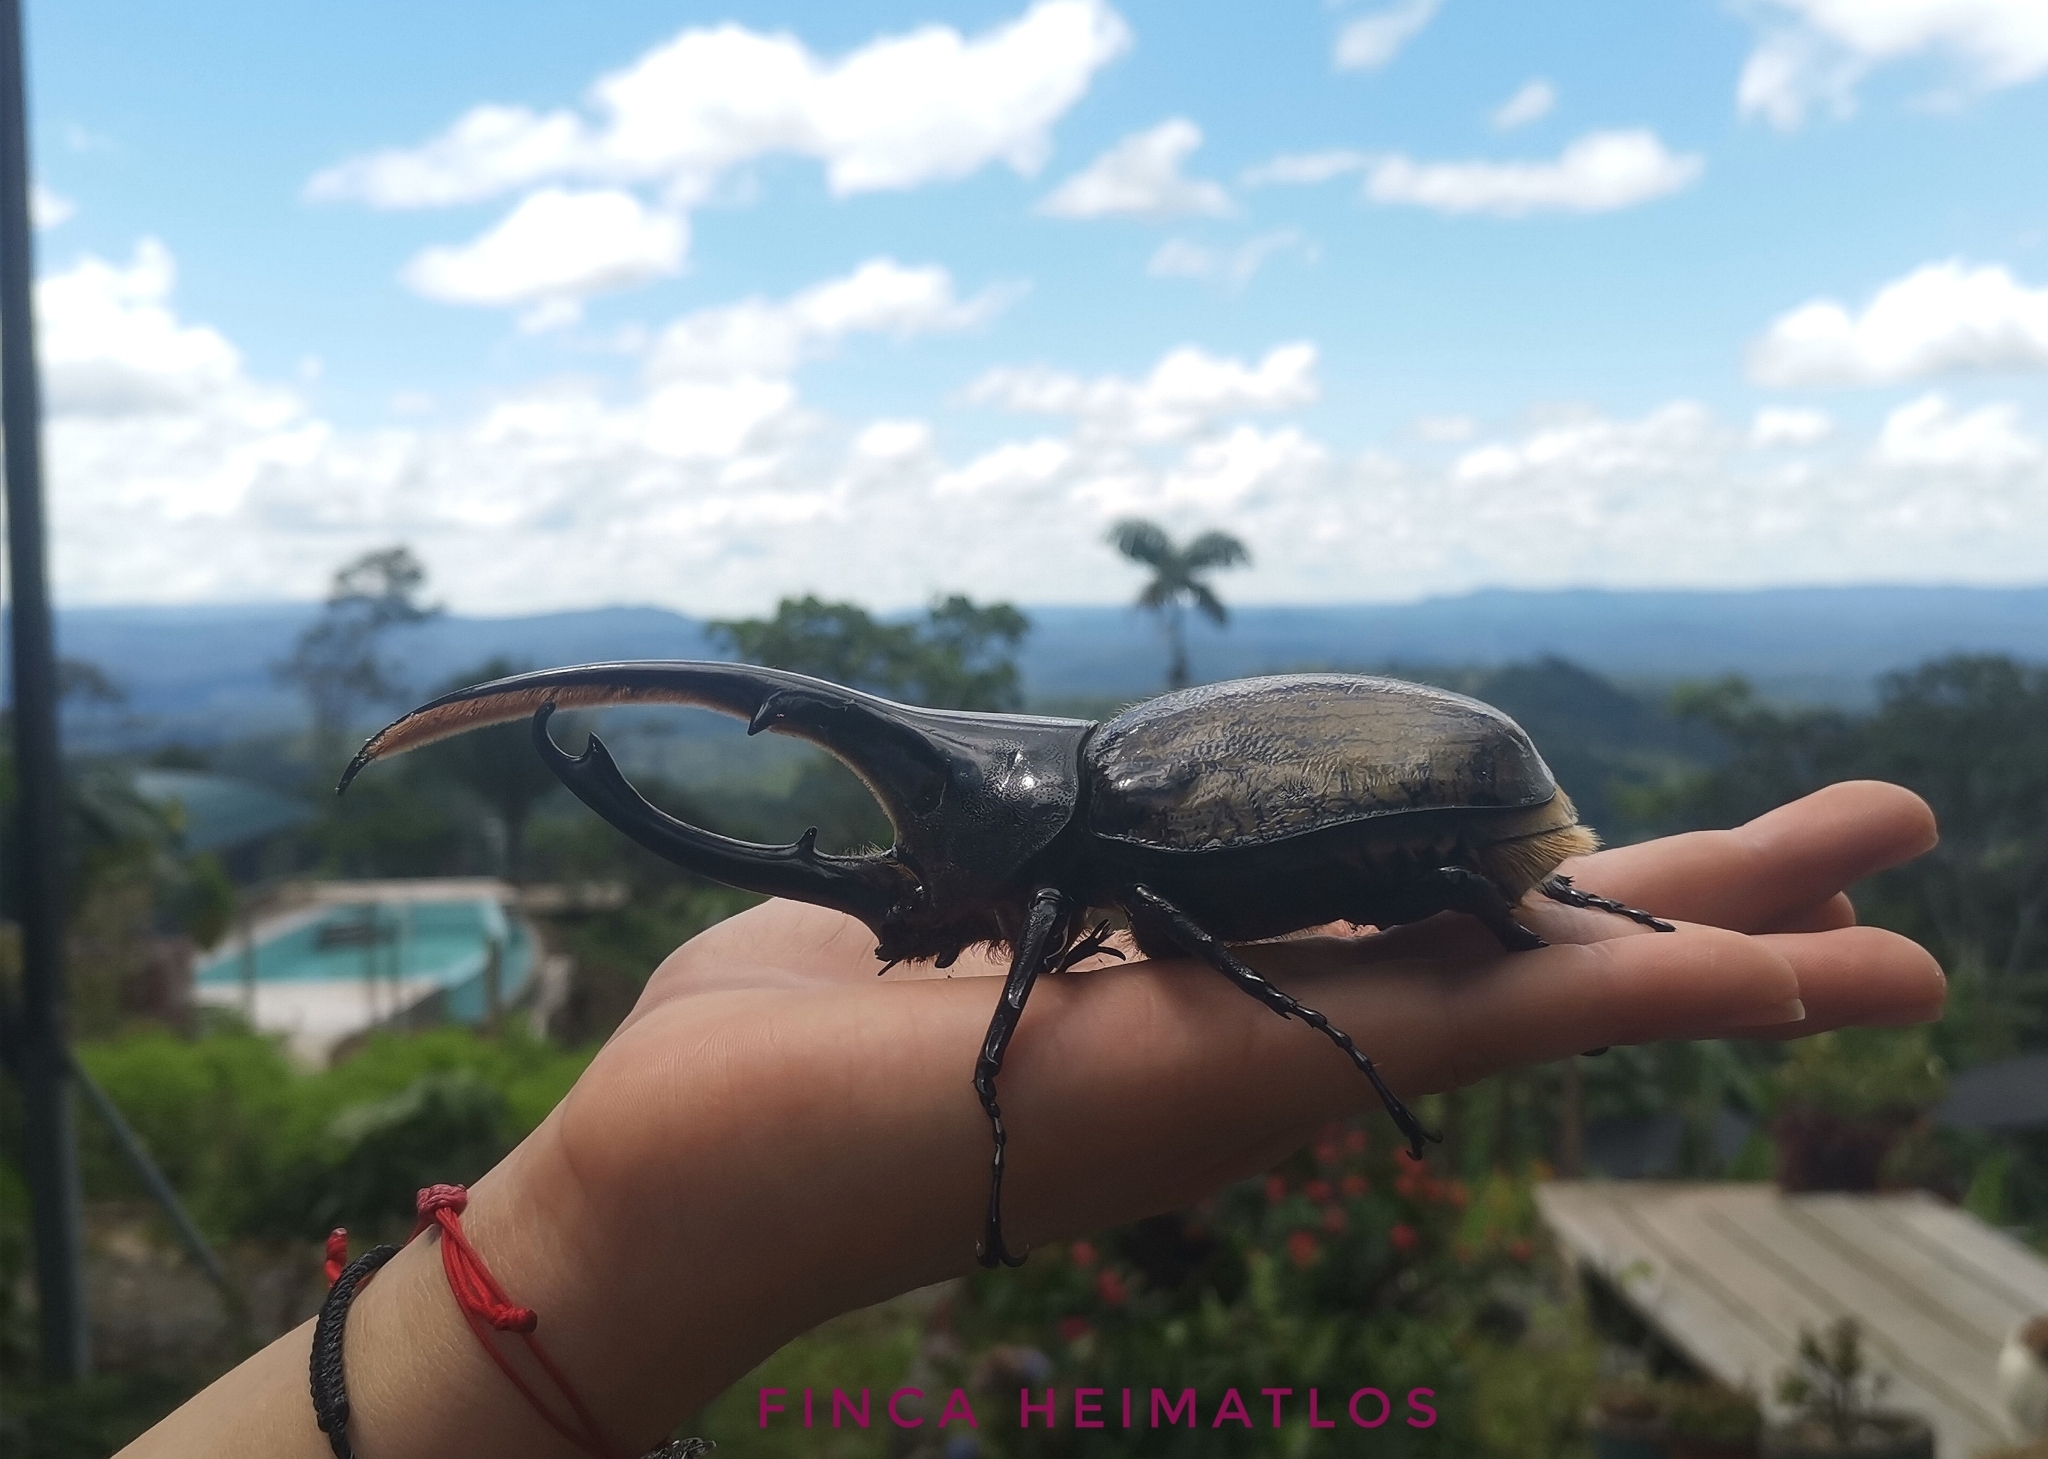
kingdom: Animalia
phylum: Arthropoda
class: Insecta
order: Coleoptera
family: Scarabaeidae
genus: Dynastes
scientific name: Dynastes
